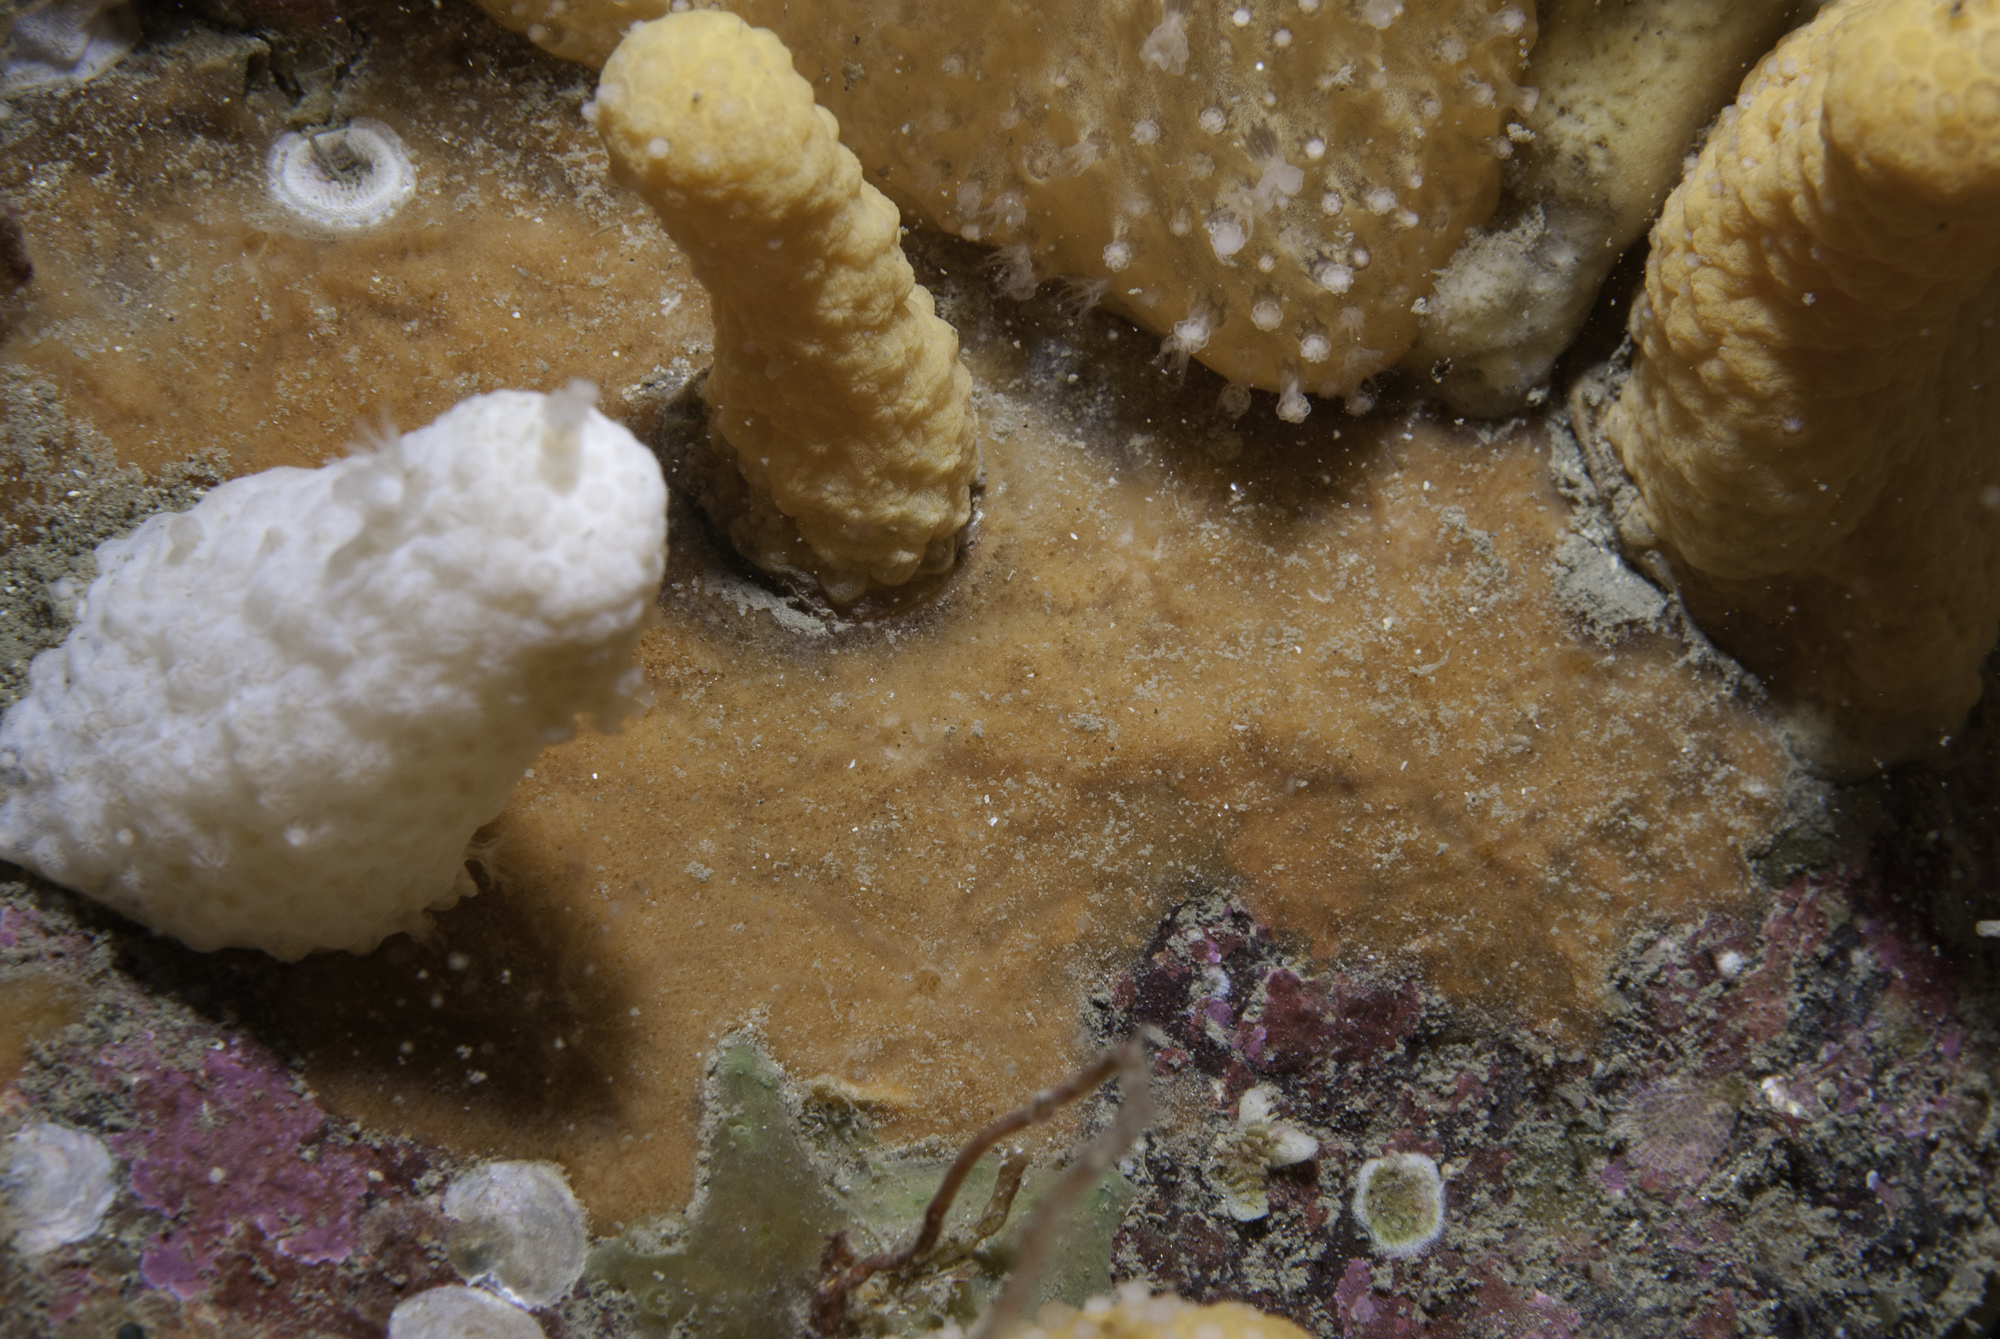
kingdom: Animalia
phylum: Porifera
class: Demospongiae
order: Poecilosclerida
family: Hymedesmiidae
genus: Plocamionida
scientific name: Plocamionida ambigua
